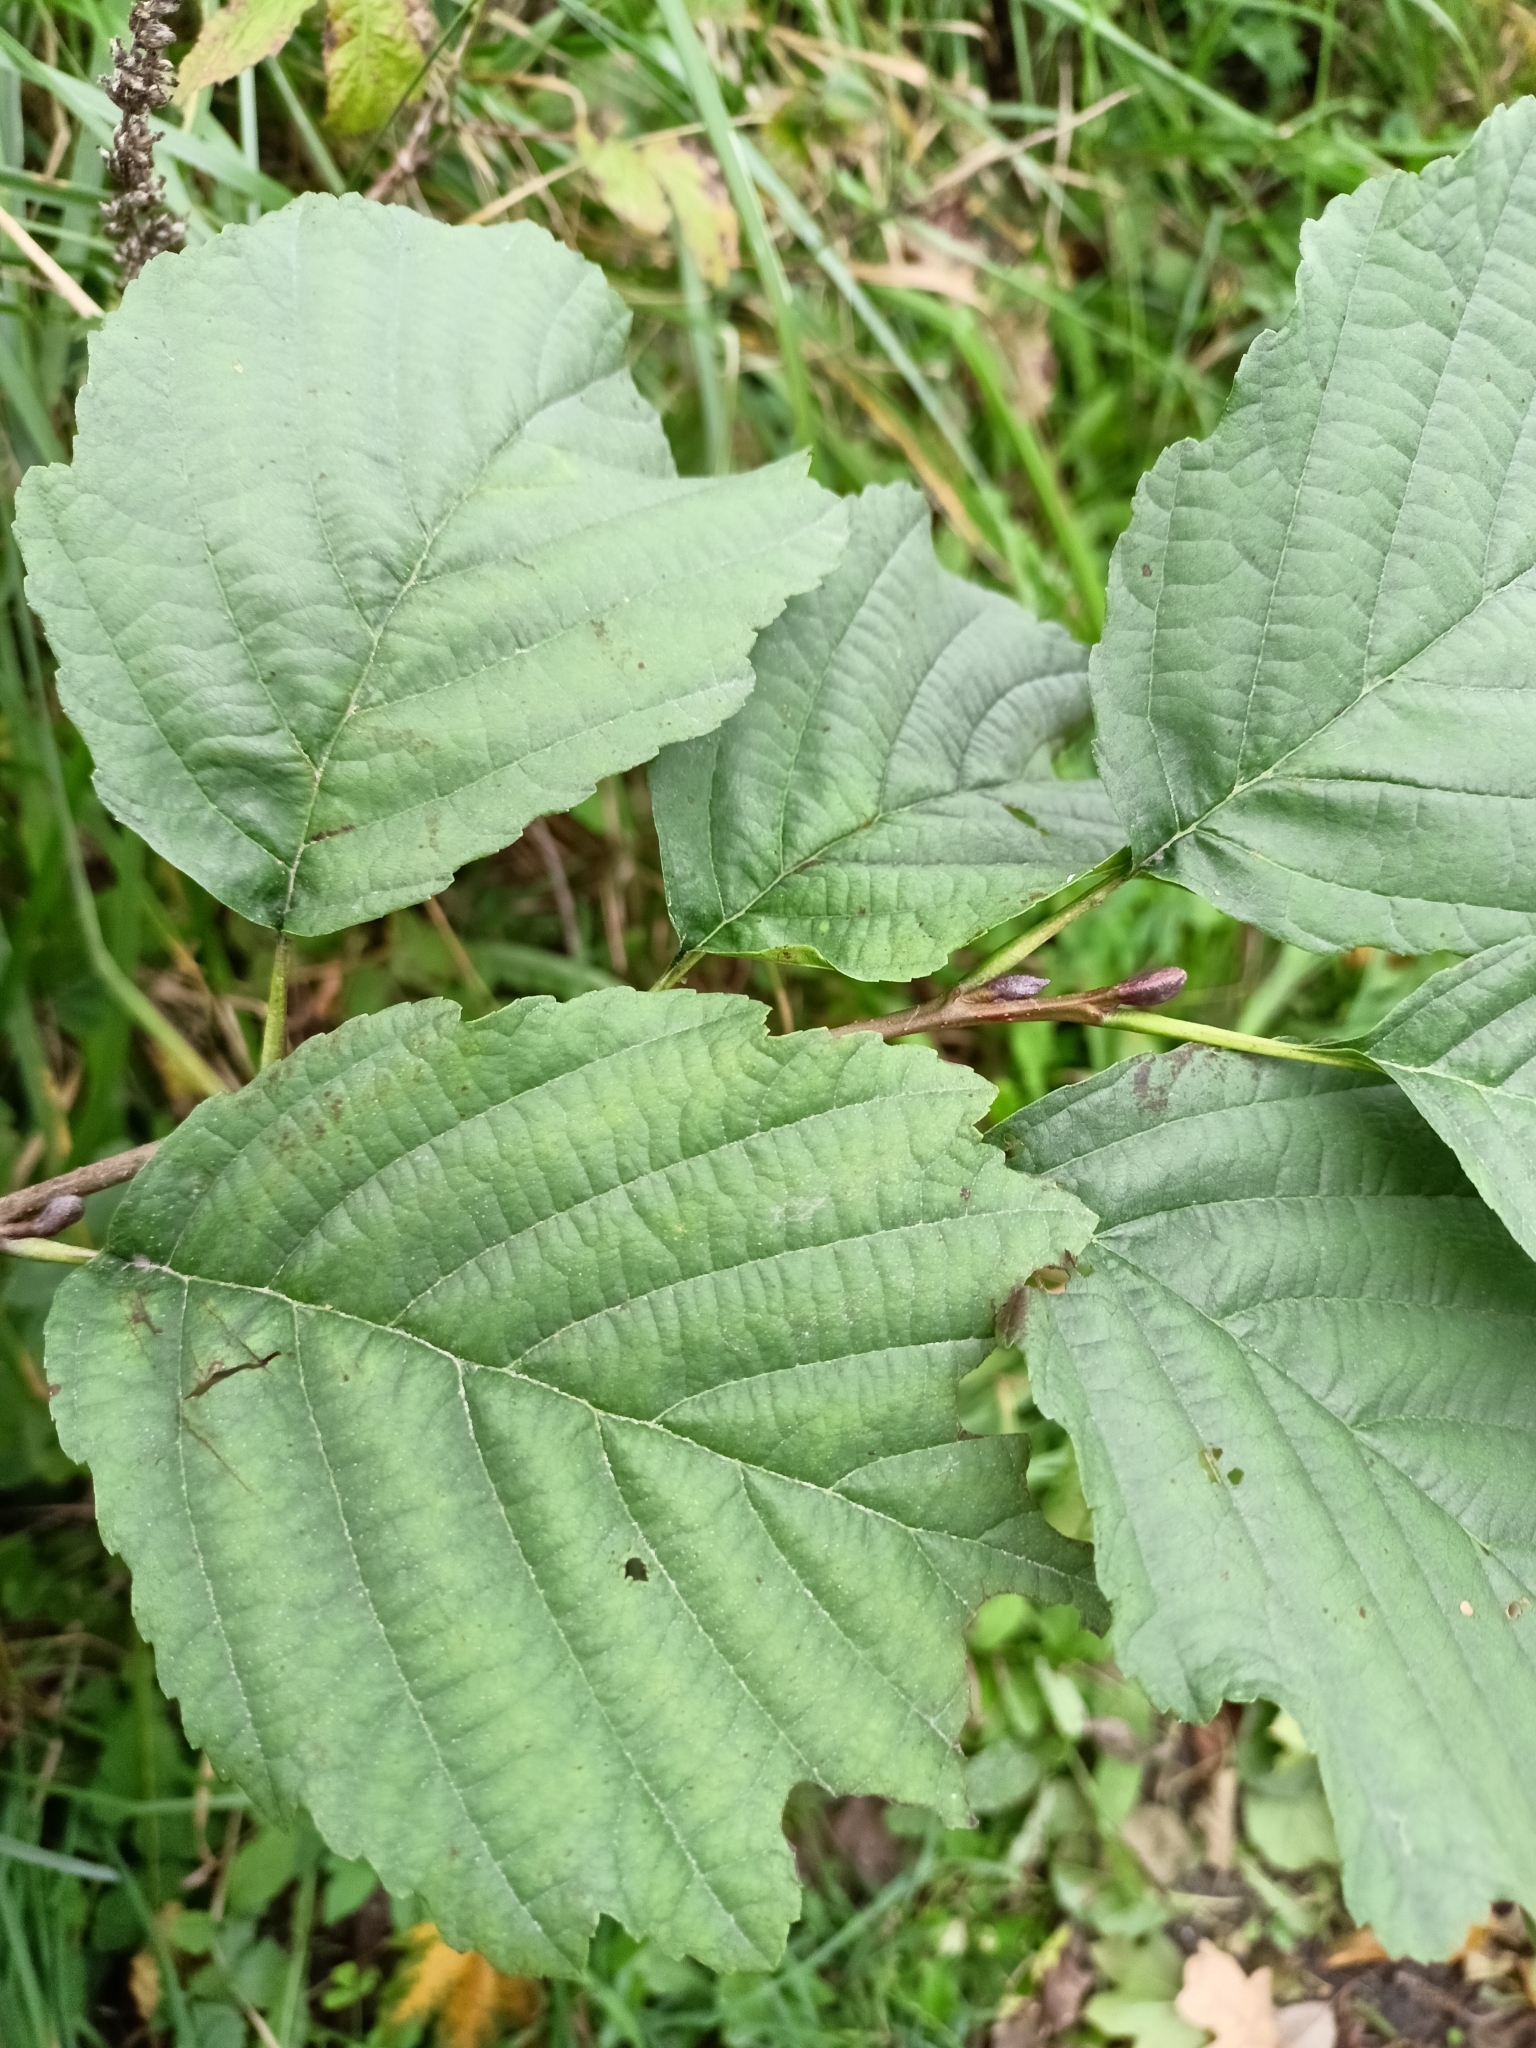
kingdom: Plantae
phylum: Tracheophyta
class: Magnoliopsida
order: Fagales
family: Betulaceae
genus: Alnus
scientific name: Alnus glutinosa
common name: Black alder
